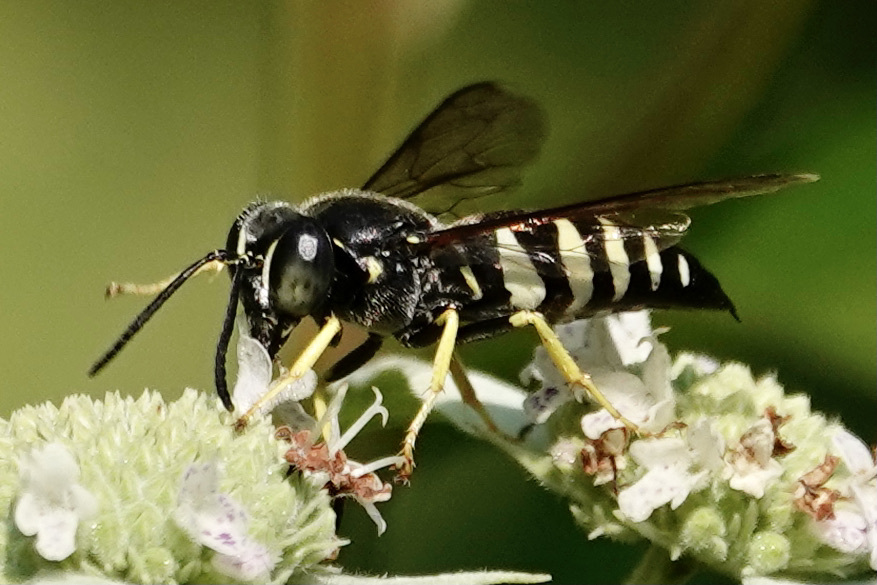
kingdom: Animalia
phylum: Arthropoda
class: Insecta
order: Hymenoptera
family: Crabronidae
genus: Bicyrtes
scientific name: Bicyrtes quadrifasciatus
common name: Four-banded stink bug hunter wasp
